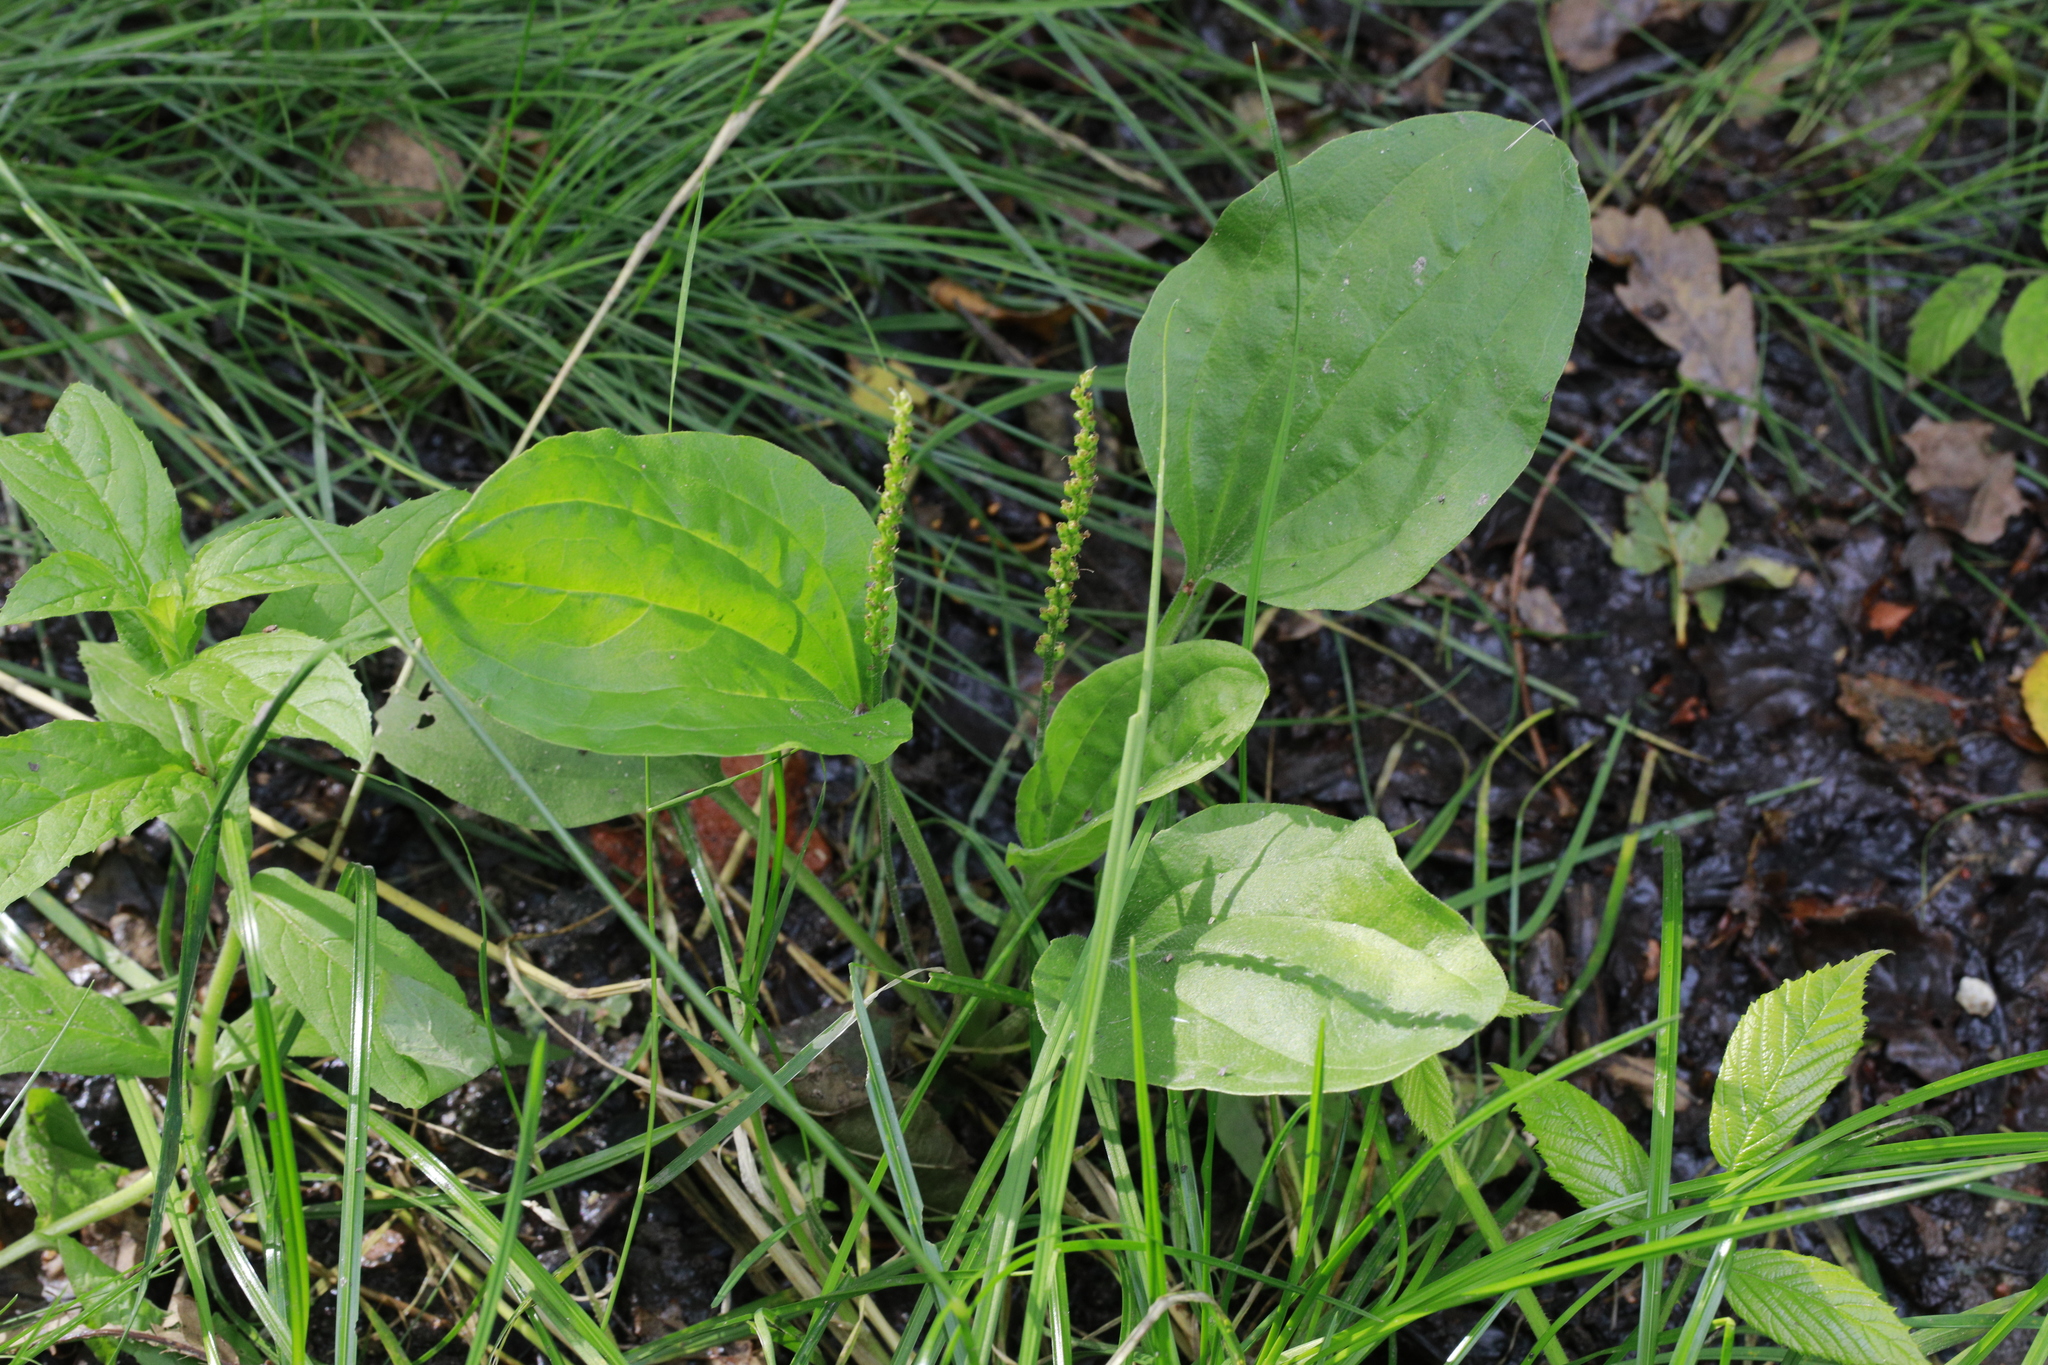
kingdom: Plantae
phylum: Tracheophyta
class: Magnoliopsida
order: Lamiales
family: Plantaginaceae
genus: Plantago
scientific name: Plantago major
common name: Common plantain
